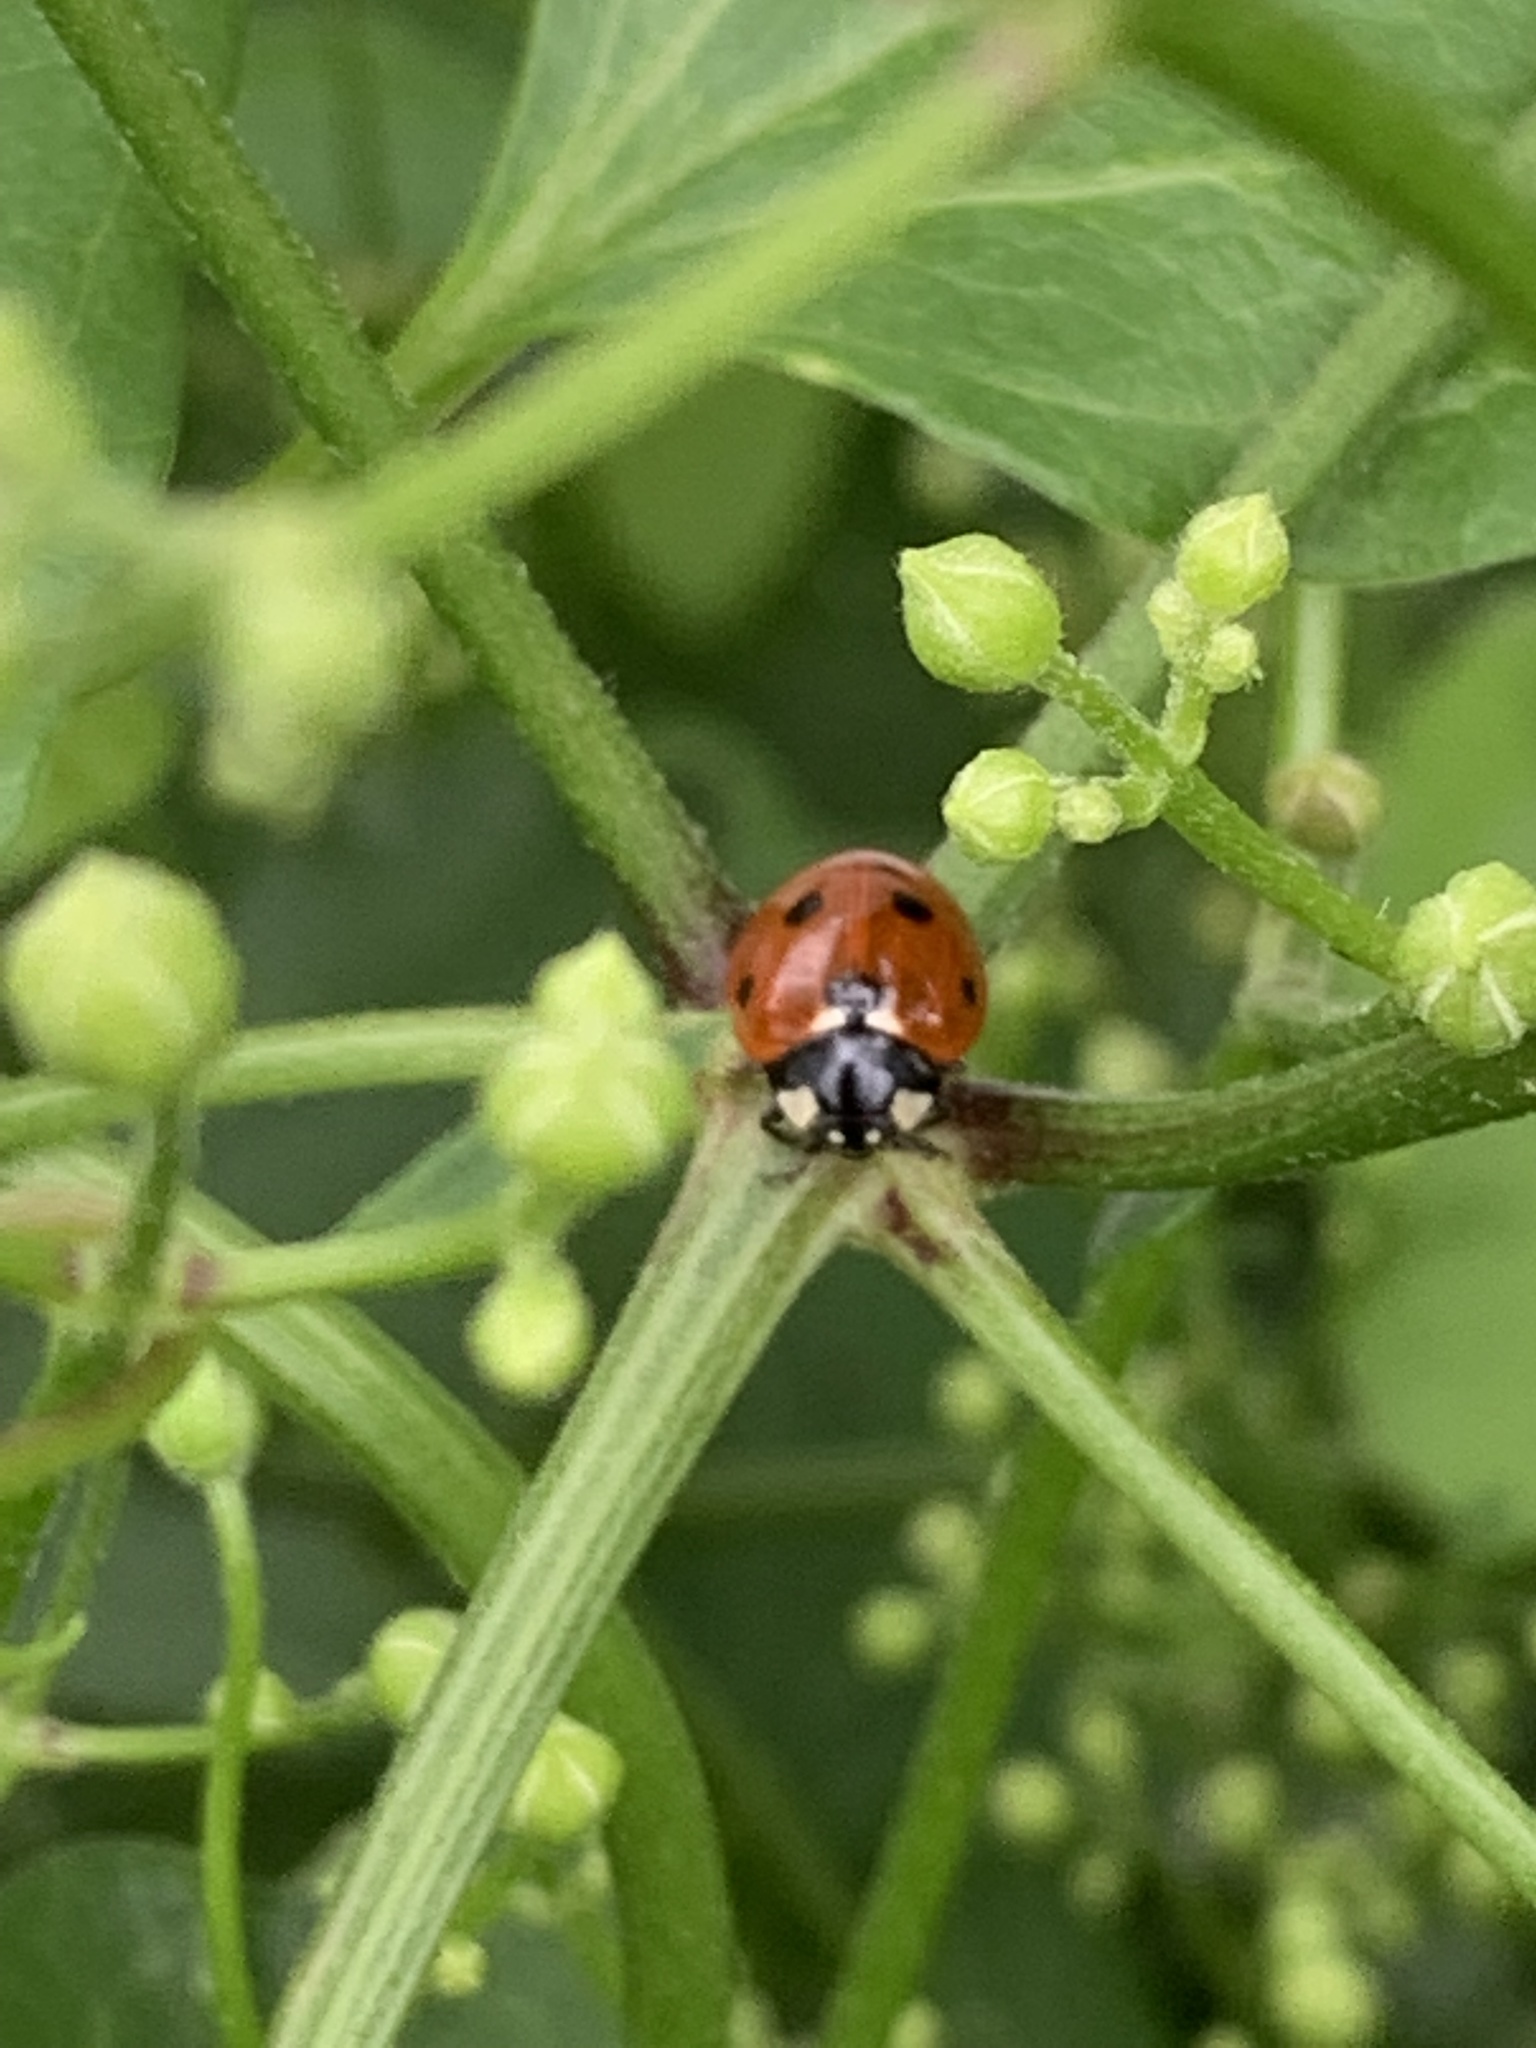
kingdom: Animalia
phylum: Arthropoda
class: Insecta
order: Coleoptera
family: Coccinellidae
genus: Coccinella
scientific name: Coccinella septempunctata
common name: Sevenspotted lady beetle
